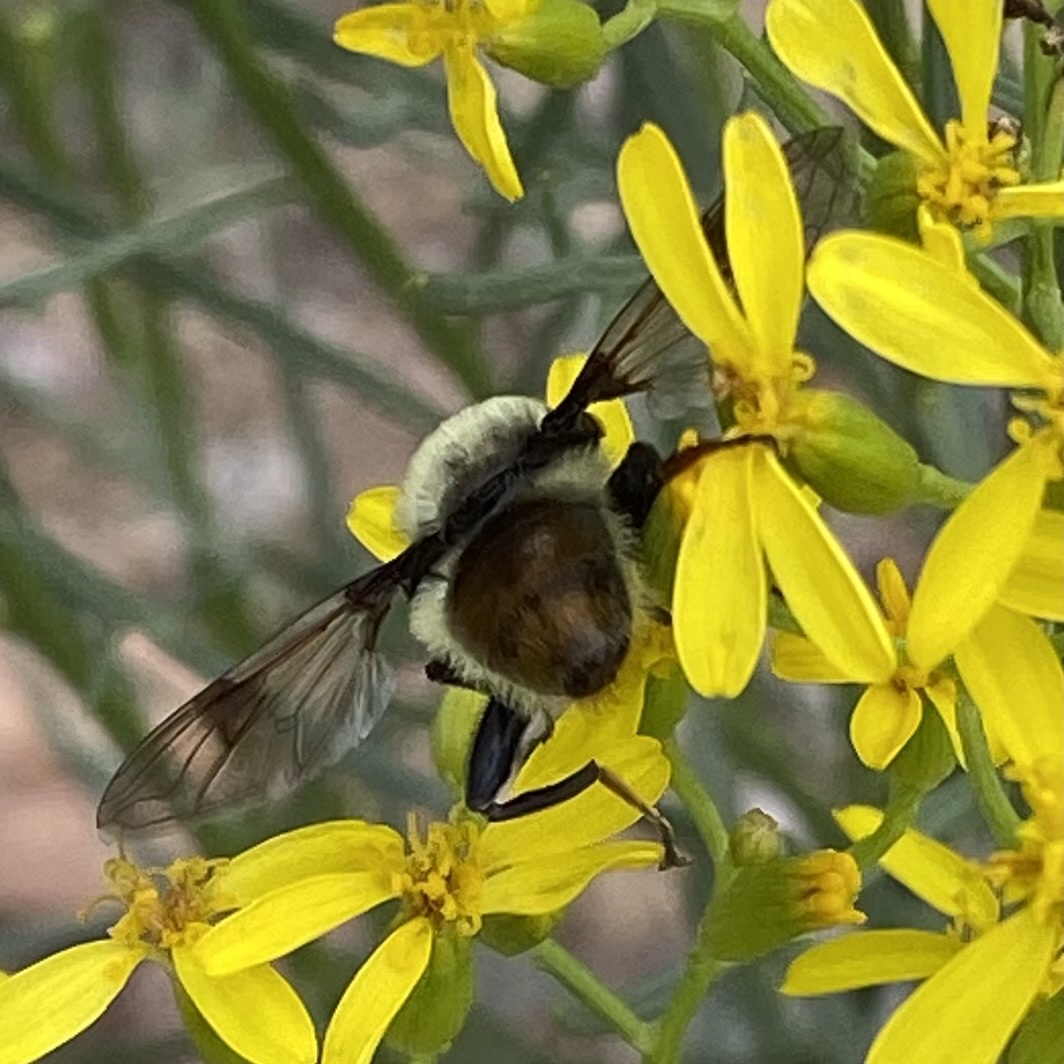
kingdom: Animalia
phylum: Arthropoda
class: Insecta
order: Diptera
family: Syrphidae
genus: Sericomyia
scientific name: Sericomyia flagrans
